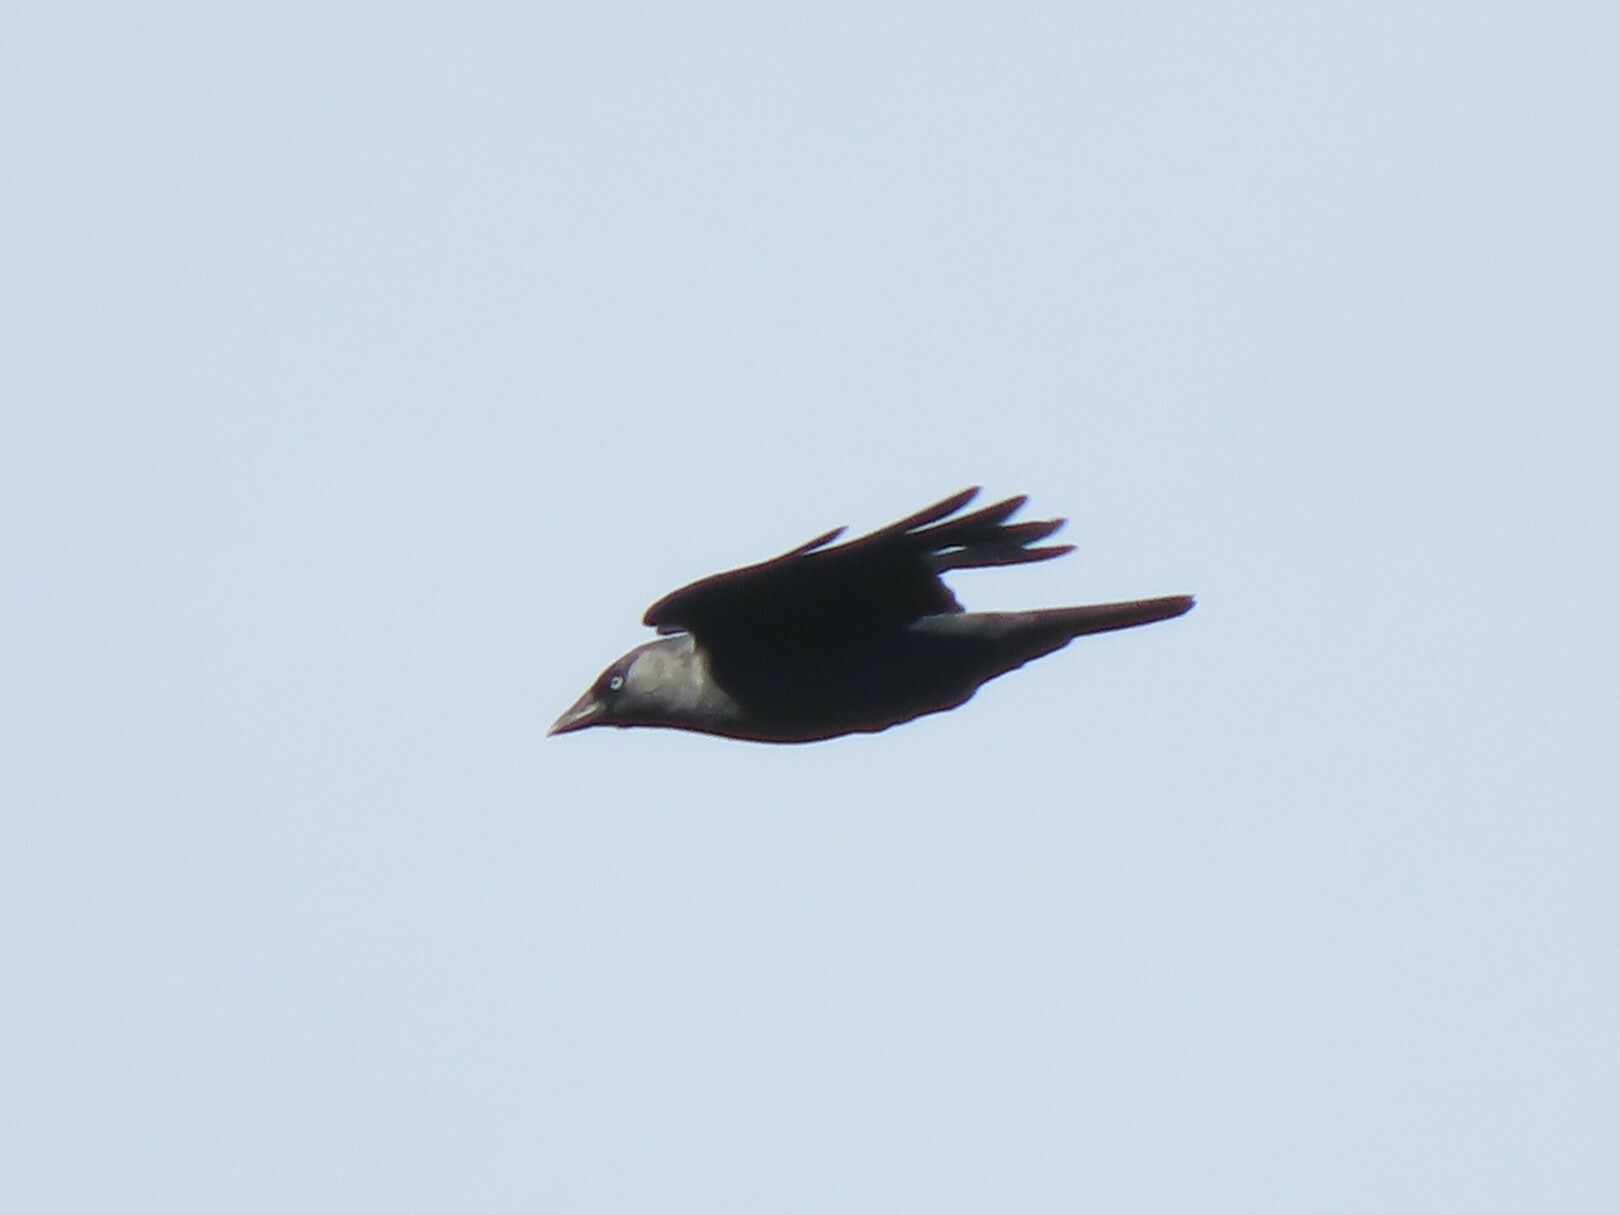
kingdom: Animalia
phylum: Chordata
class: Aves
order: Passeriformes
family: Corvidae
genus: Coloeus
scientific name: Coloeus monedula
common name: Western jackdaw
